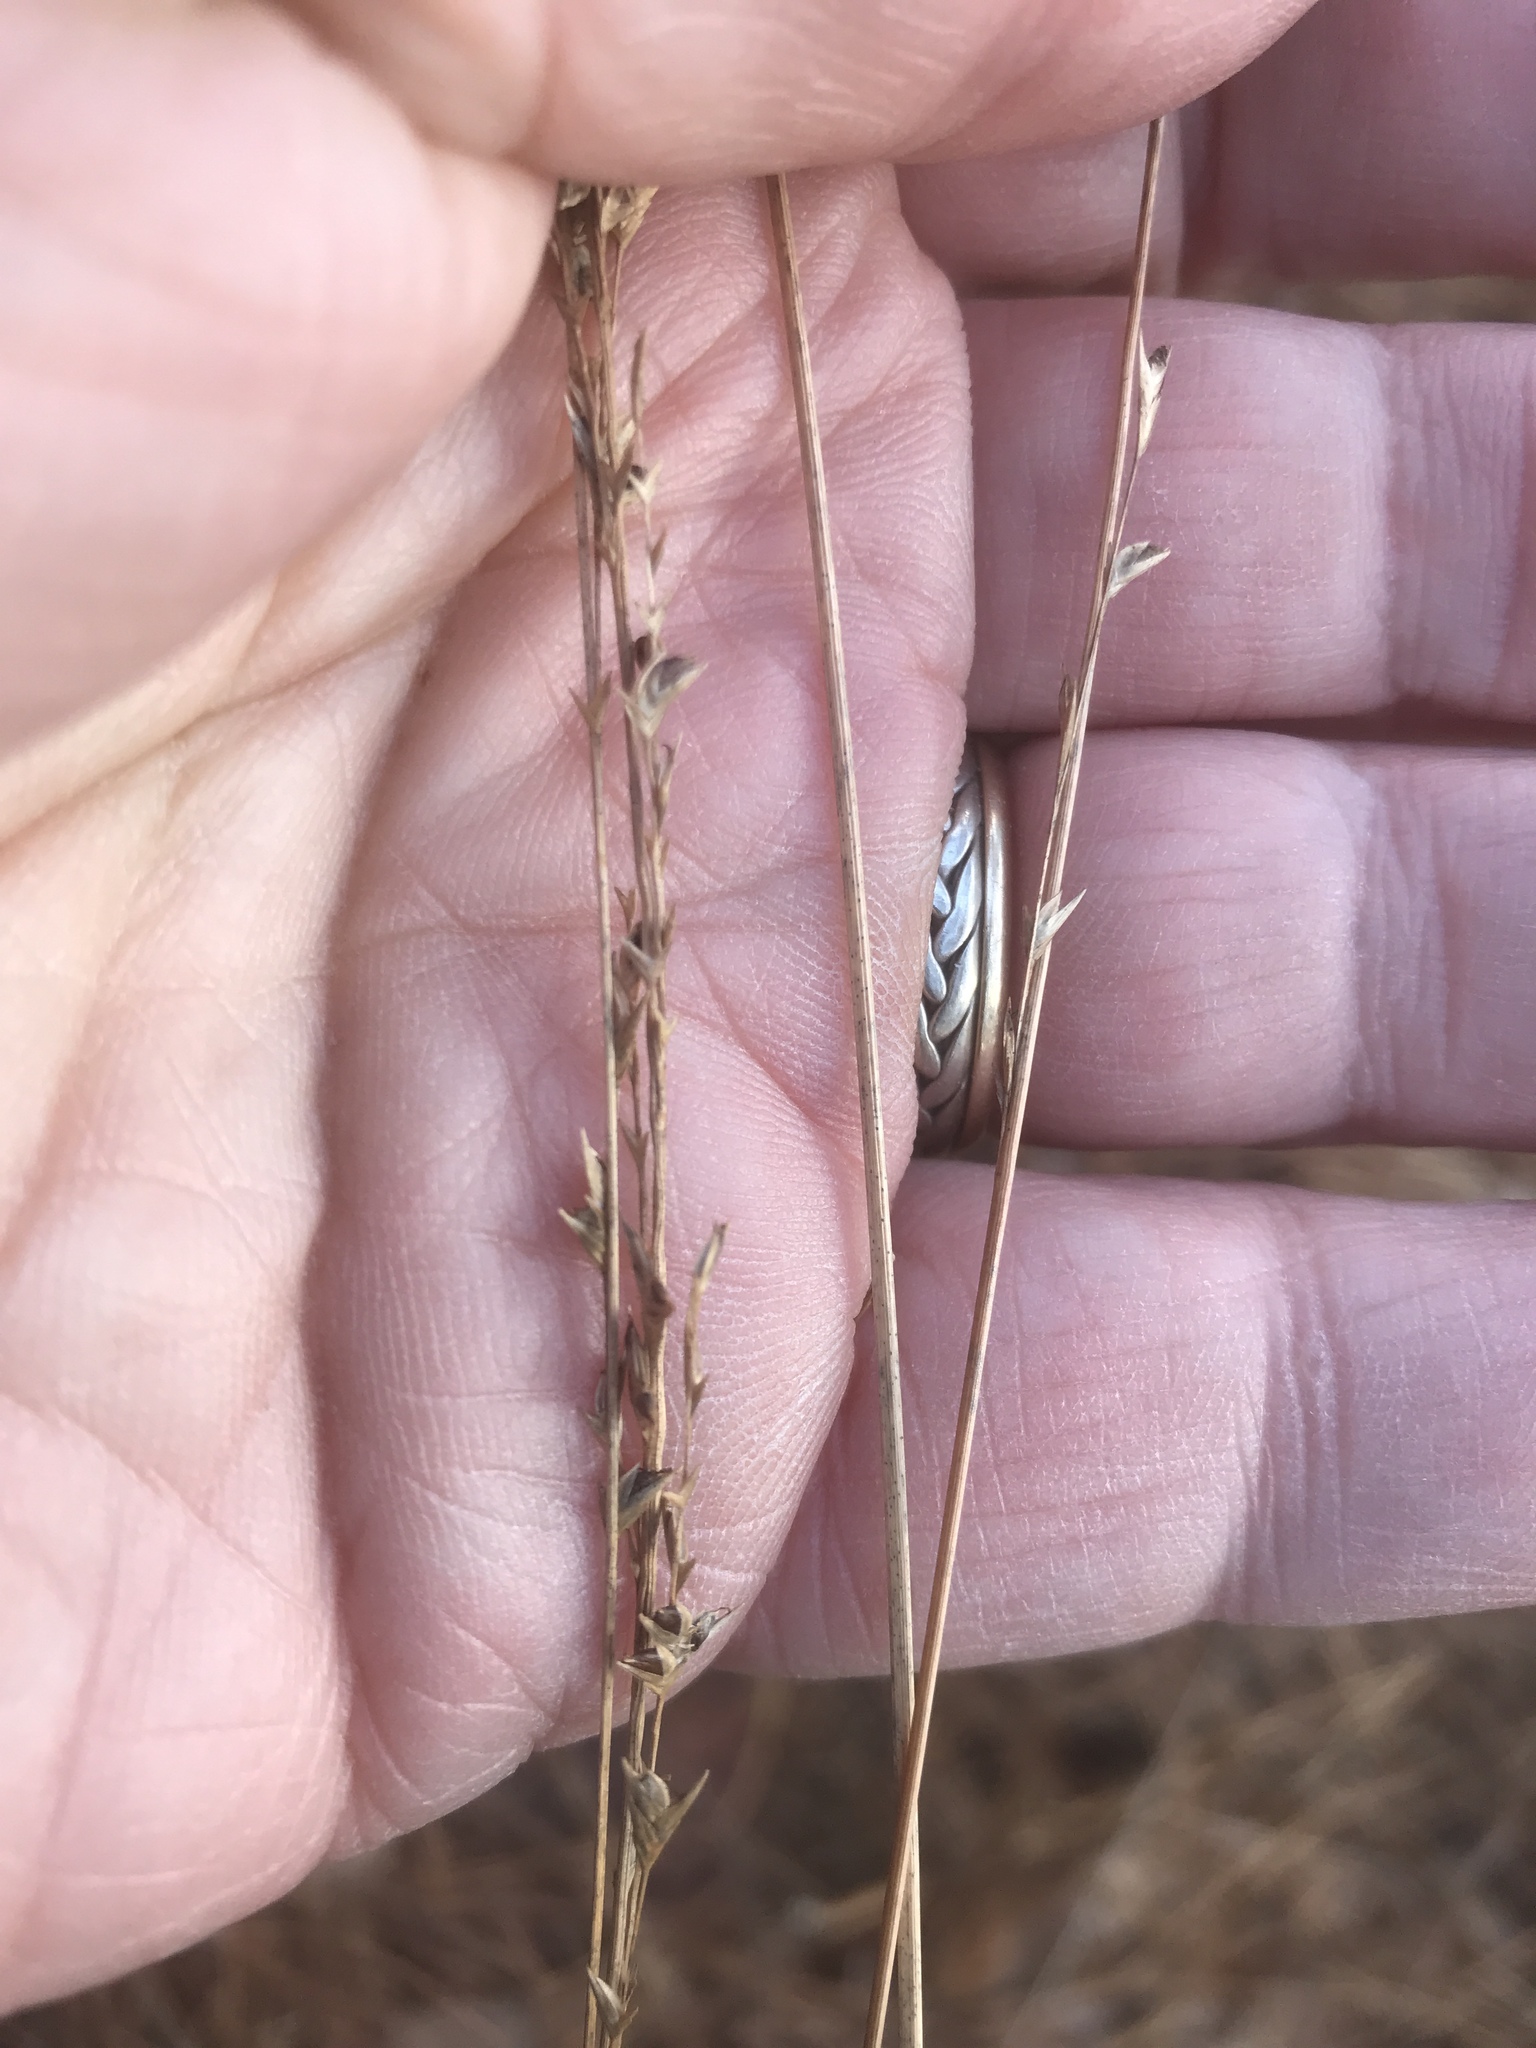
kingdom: Plantae
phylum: Tracheophyta
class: Liliopsida
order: Poales
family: Poaceae
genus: Chasmanthium
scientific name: Chasmanthium laxum
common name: Slender chasmanthium
